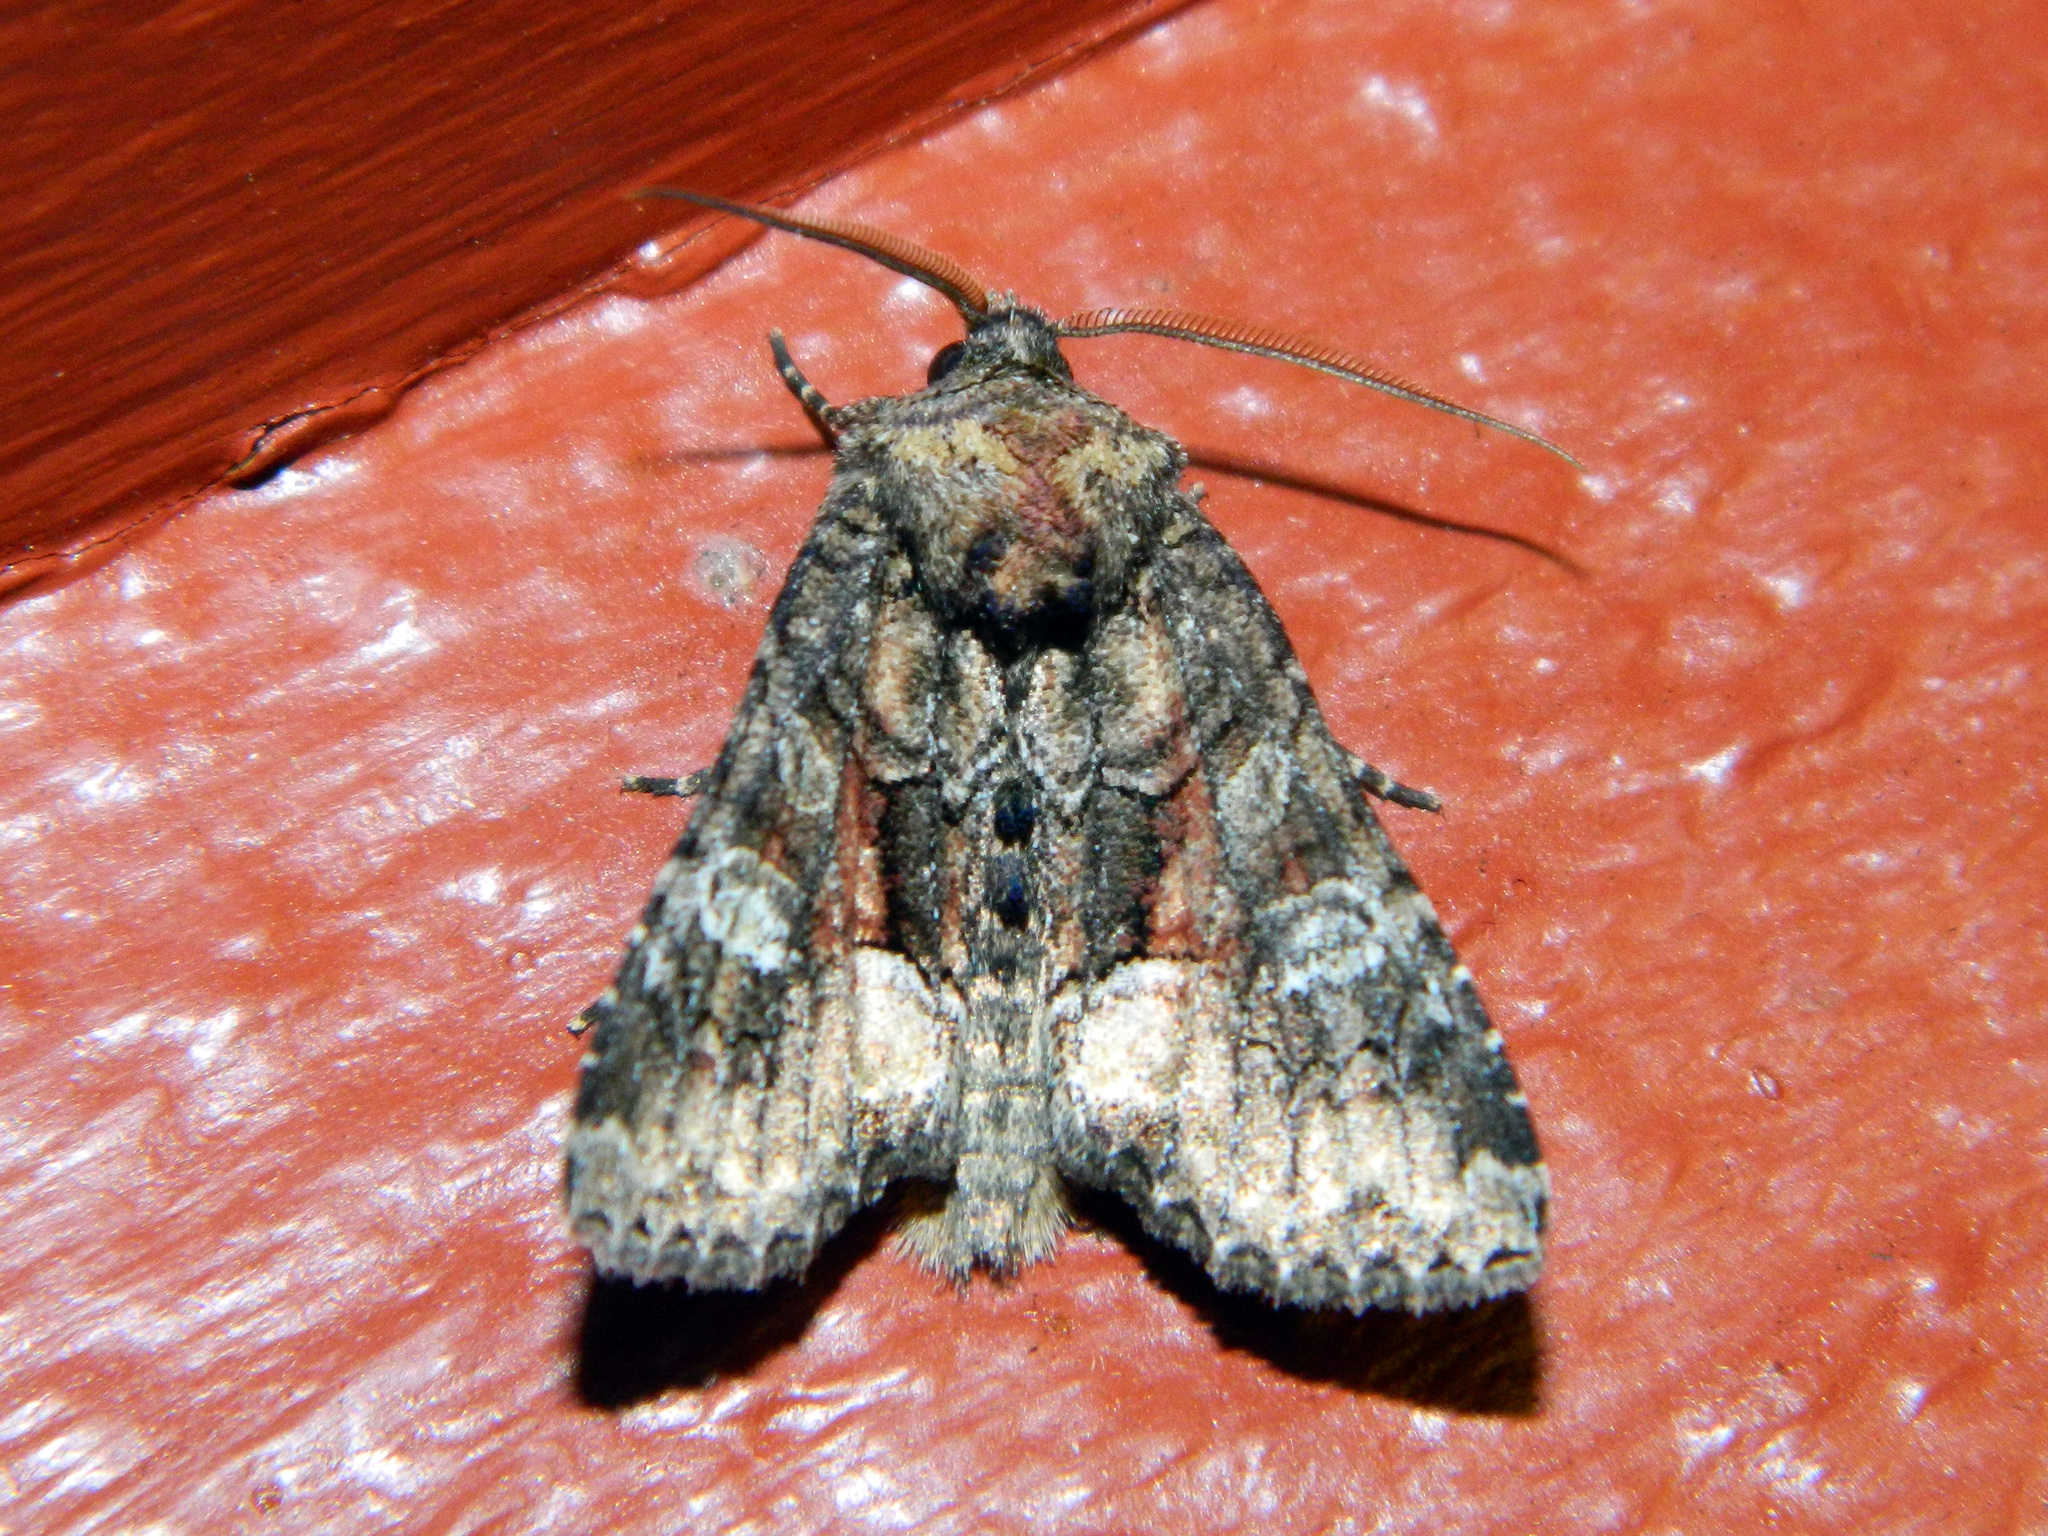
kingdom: Animalia
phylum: Arthropoda
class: Insecta
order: Lepidoptera
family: Noctuidae
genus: Fishia
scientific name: Fishia illocata
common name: Wandering brocade moth
